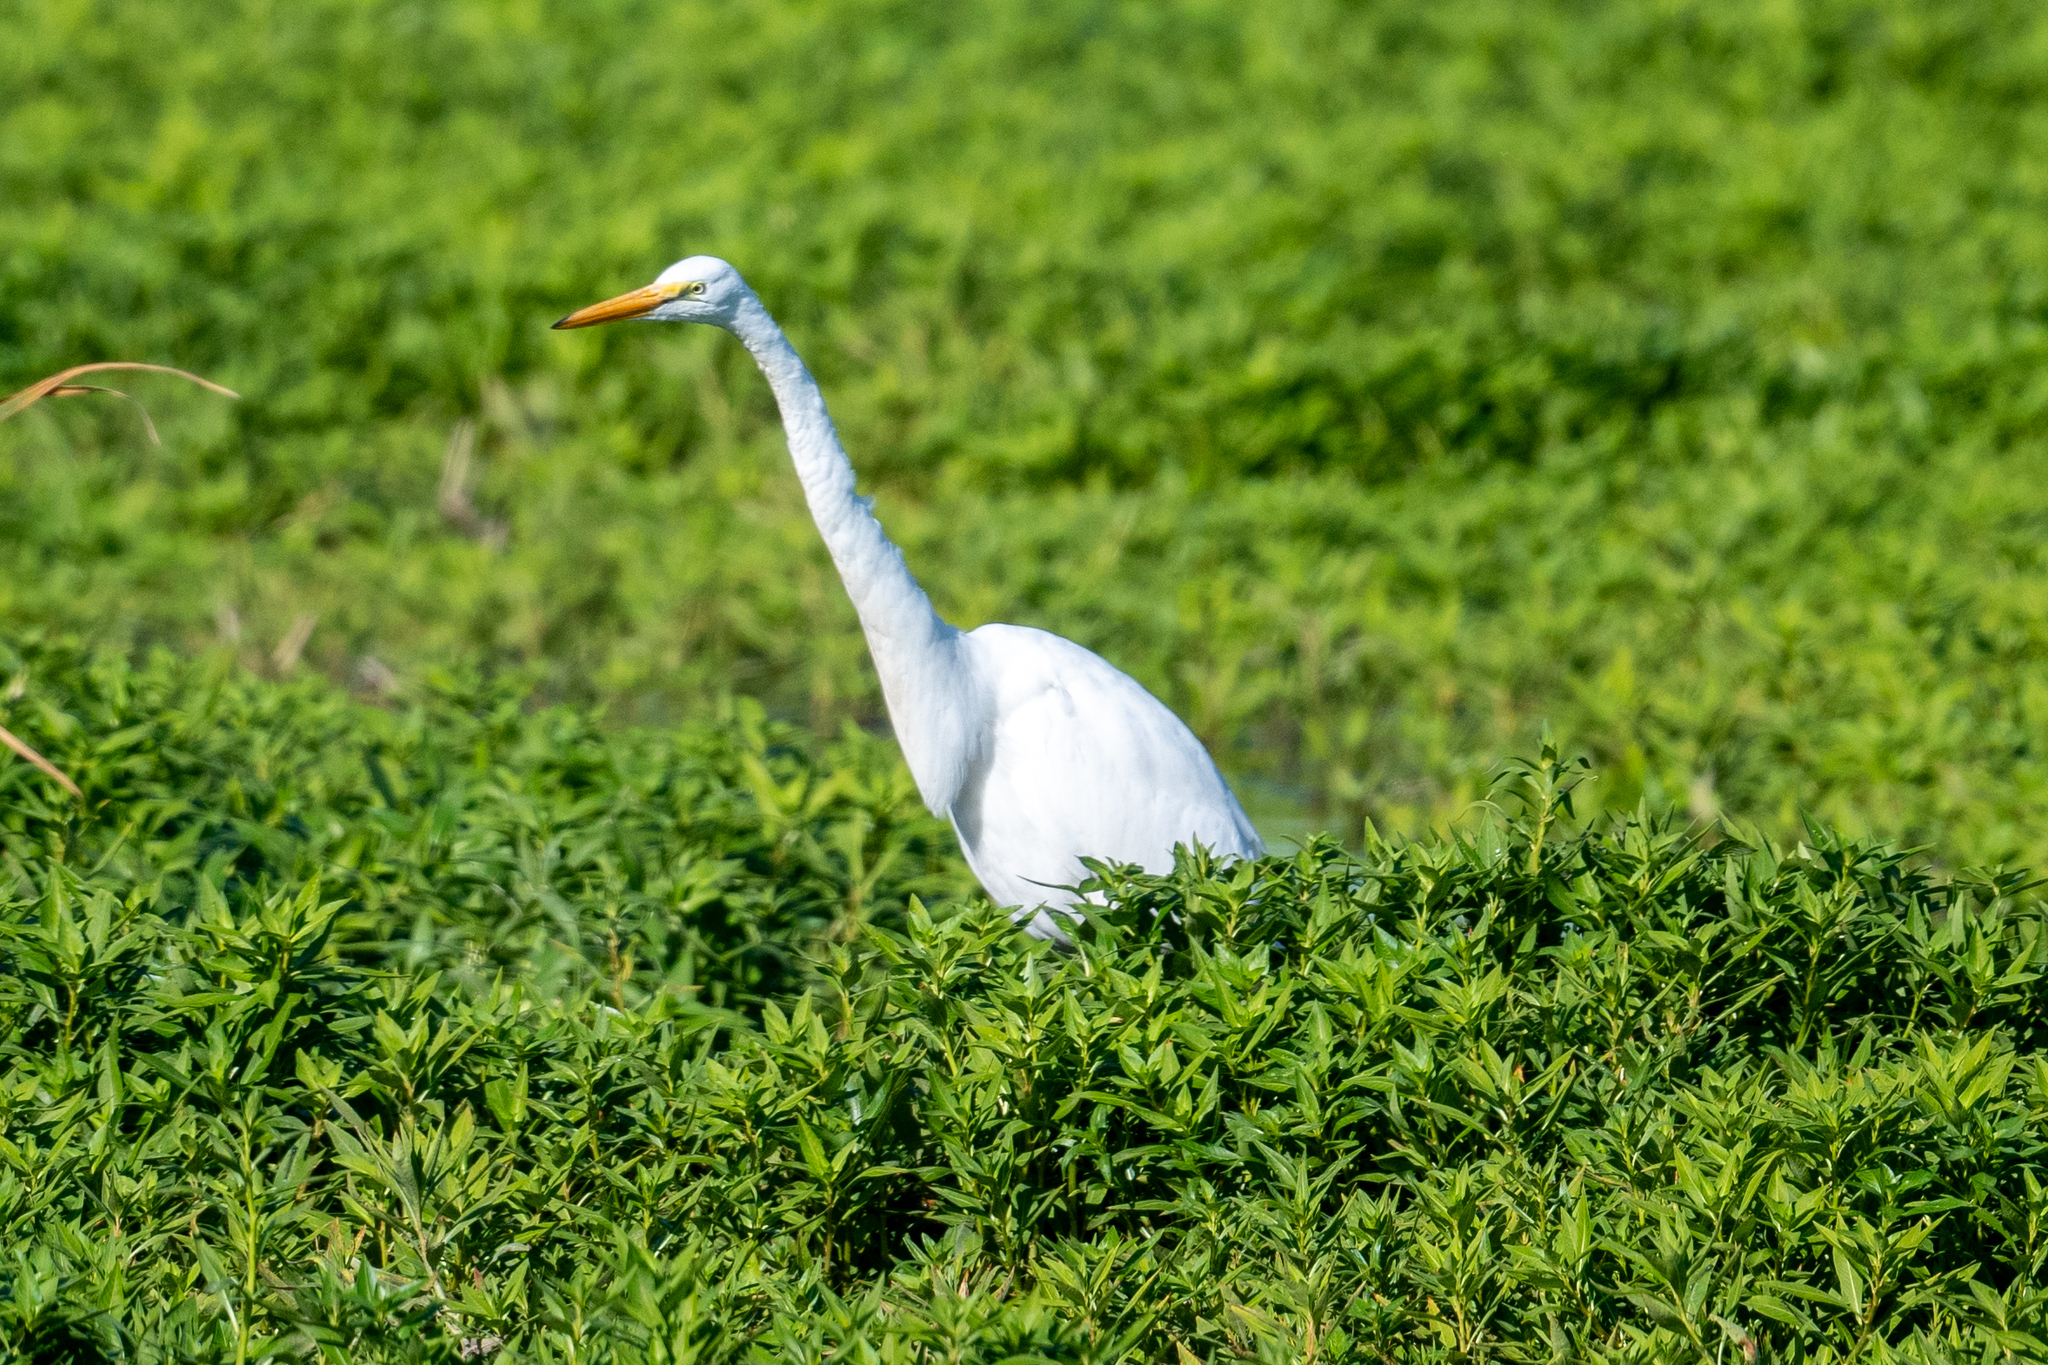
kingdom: Animalia
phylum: Chordata
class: Aves
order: Pelecaniformes
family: Ardeidae
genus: Ardea
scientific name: Ardea alba
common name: Great egret
